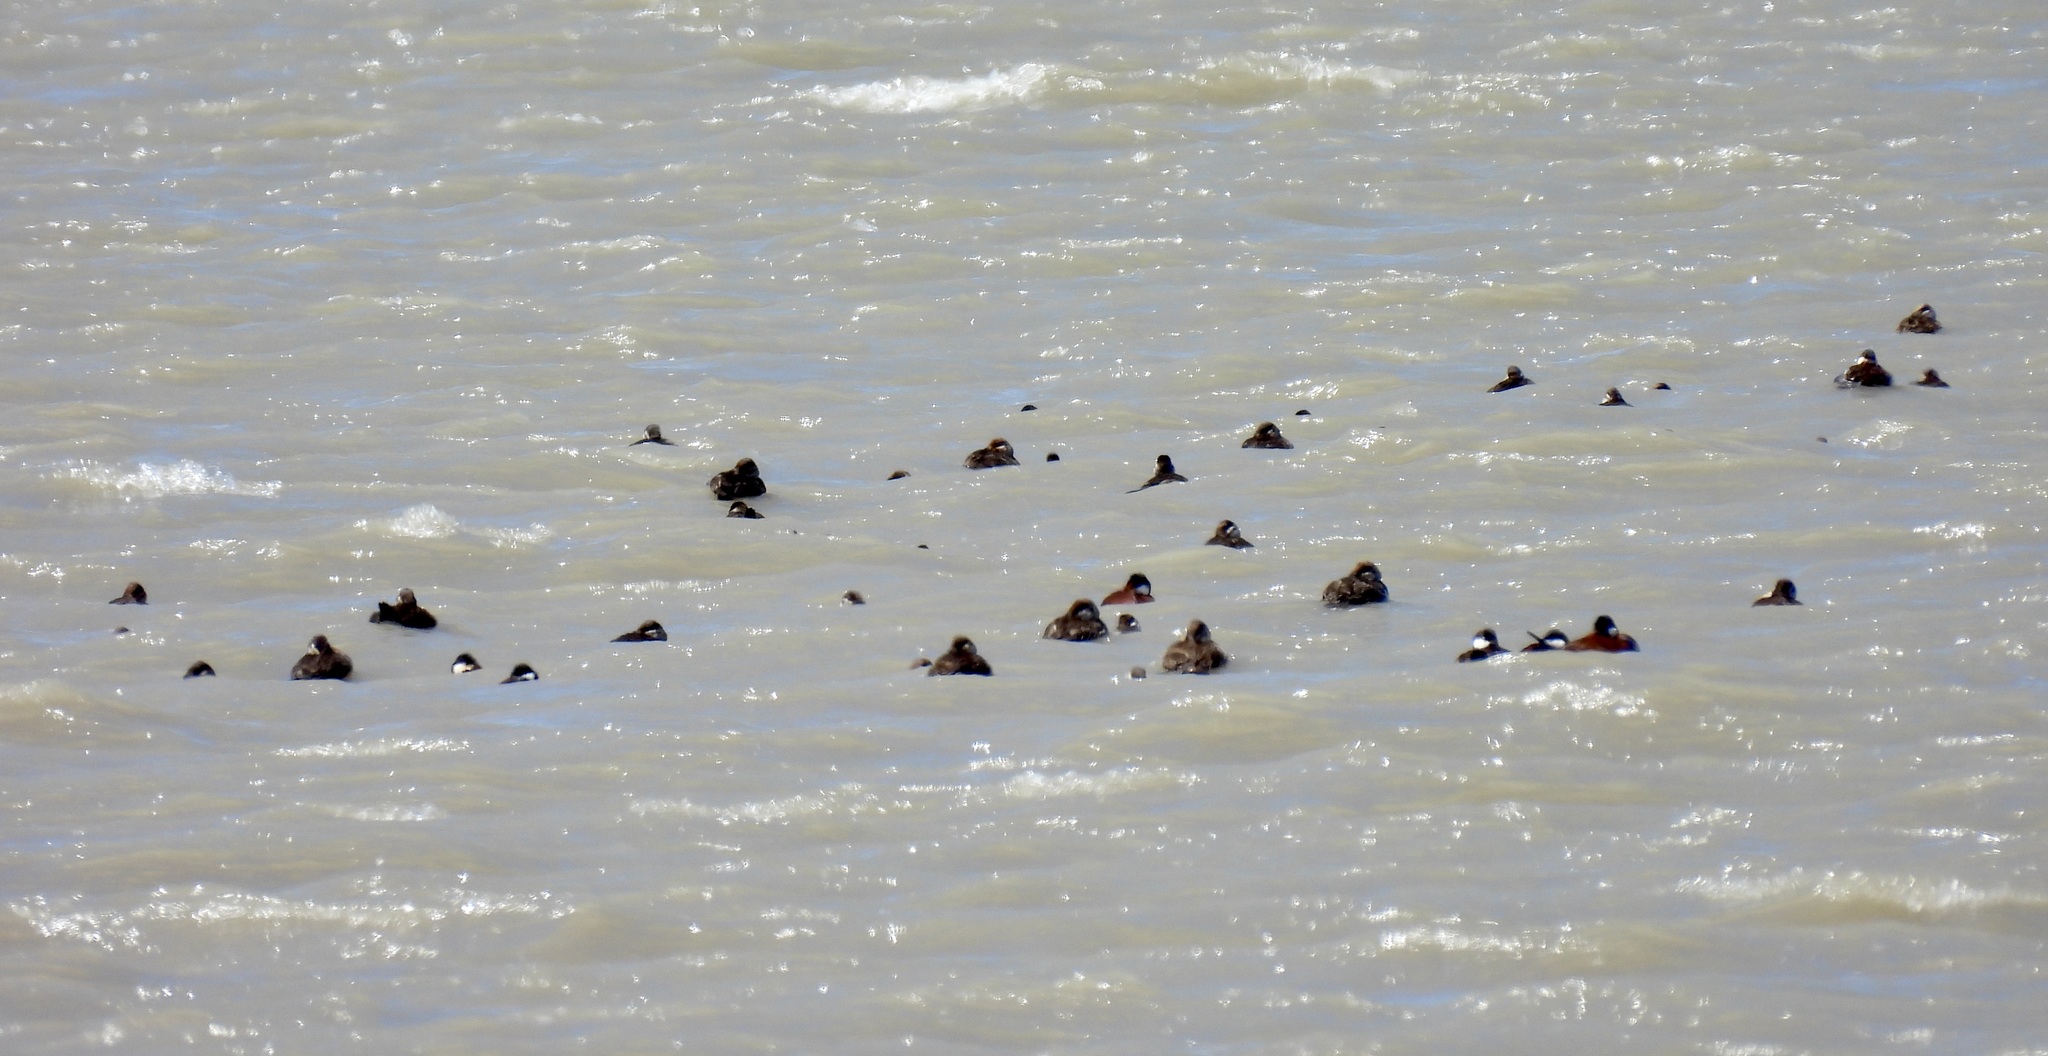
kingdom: Animalia
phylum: Chordata
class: Aves
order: Anseriformes
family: Anatidae
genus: Oxyura
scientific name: Oxyura jamaicensis
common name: Ruddy duck
